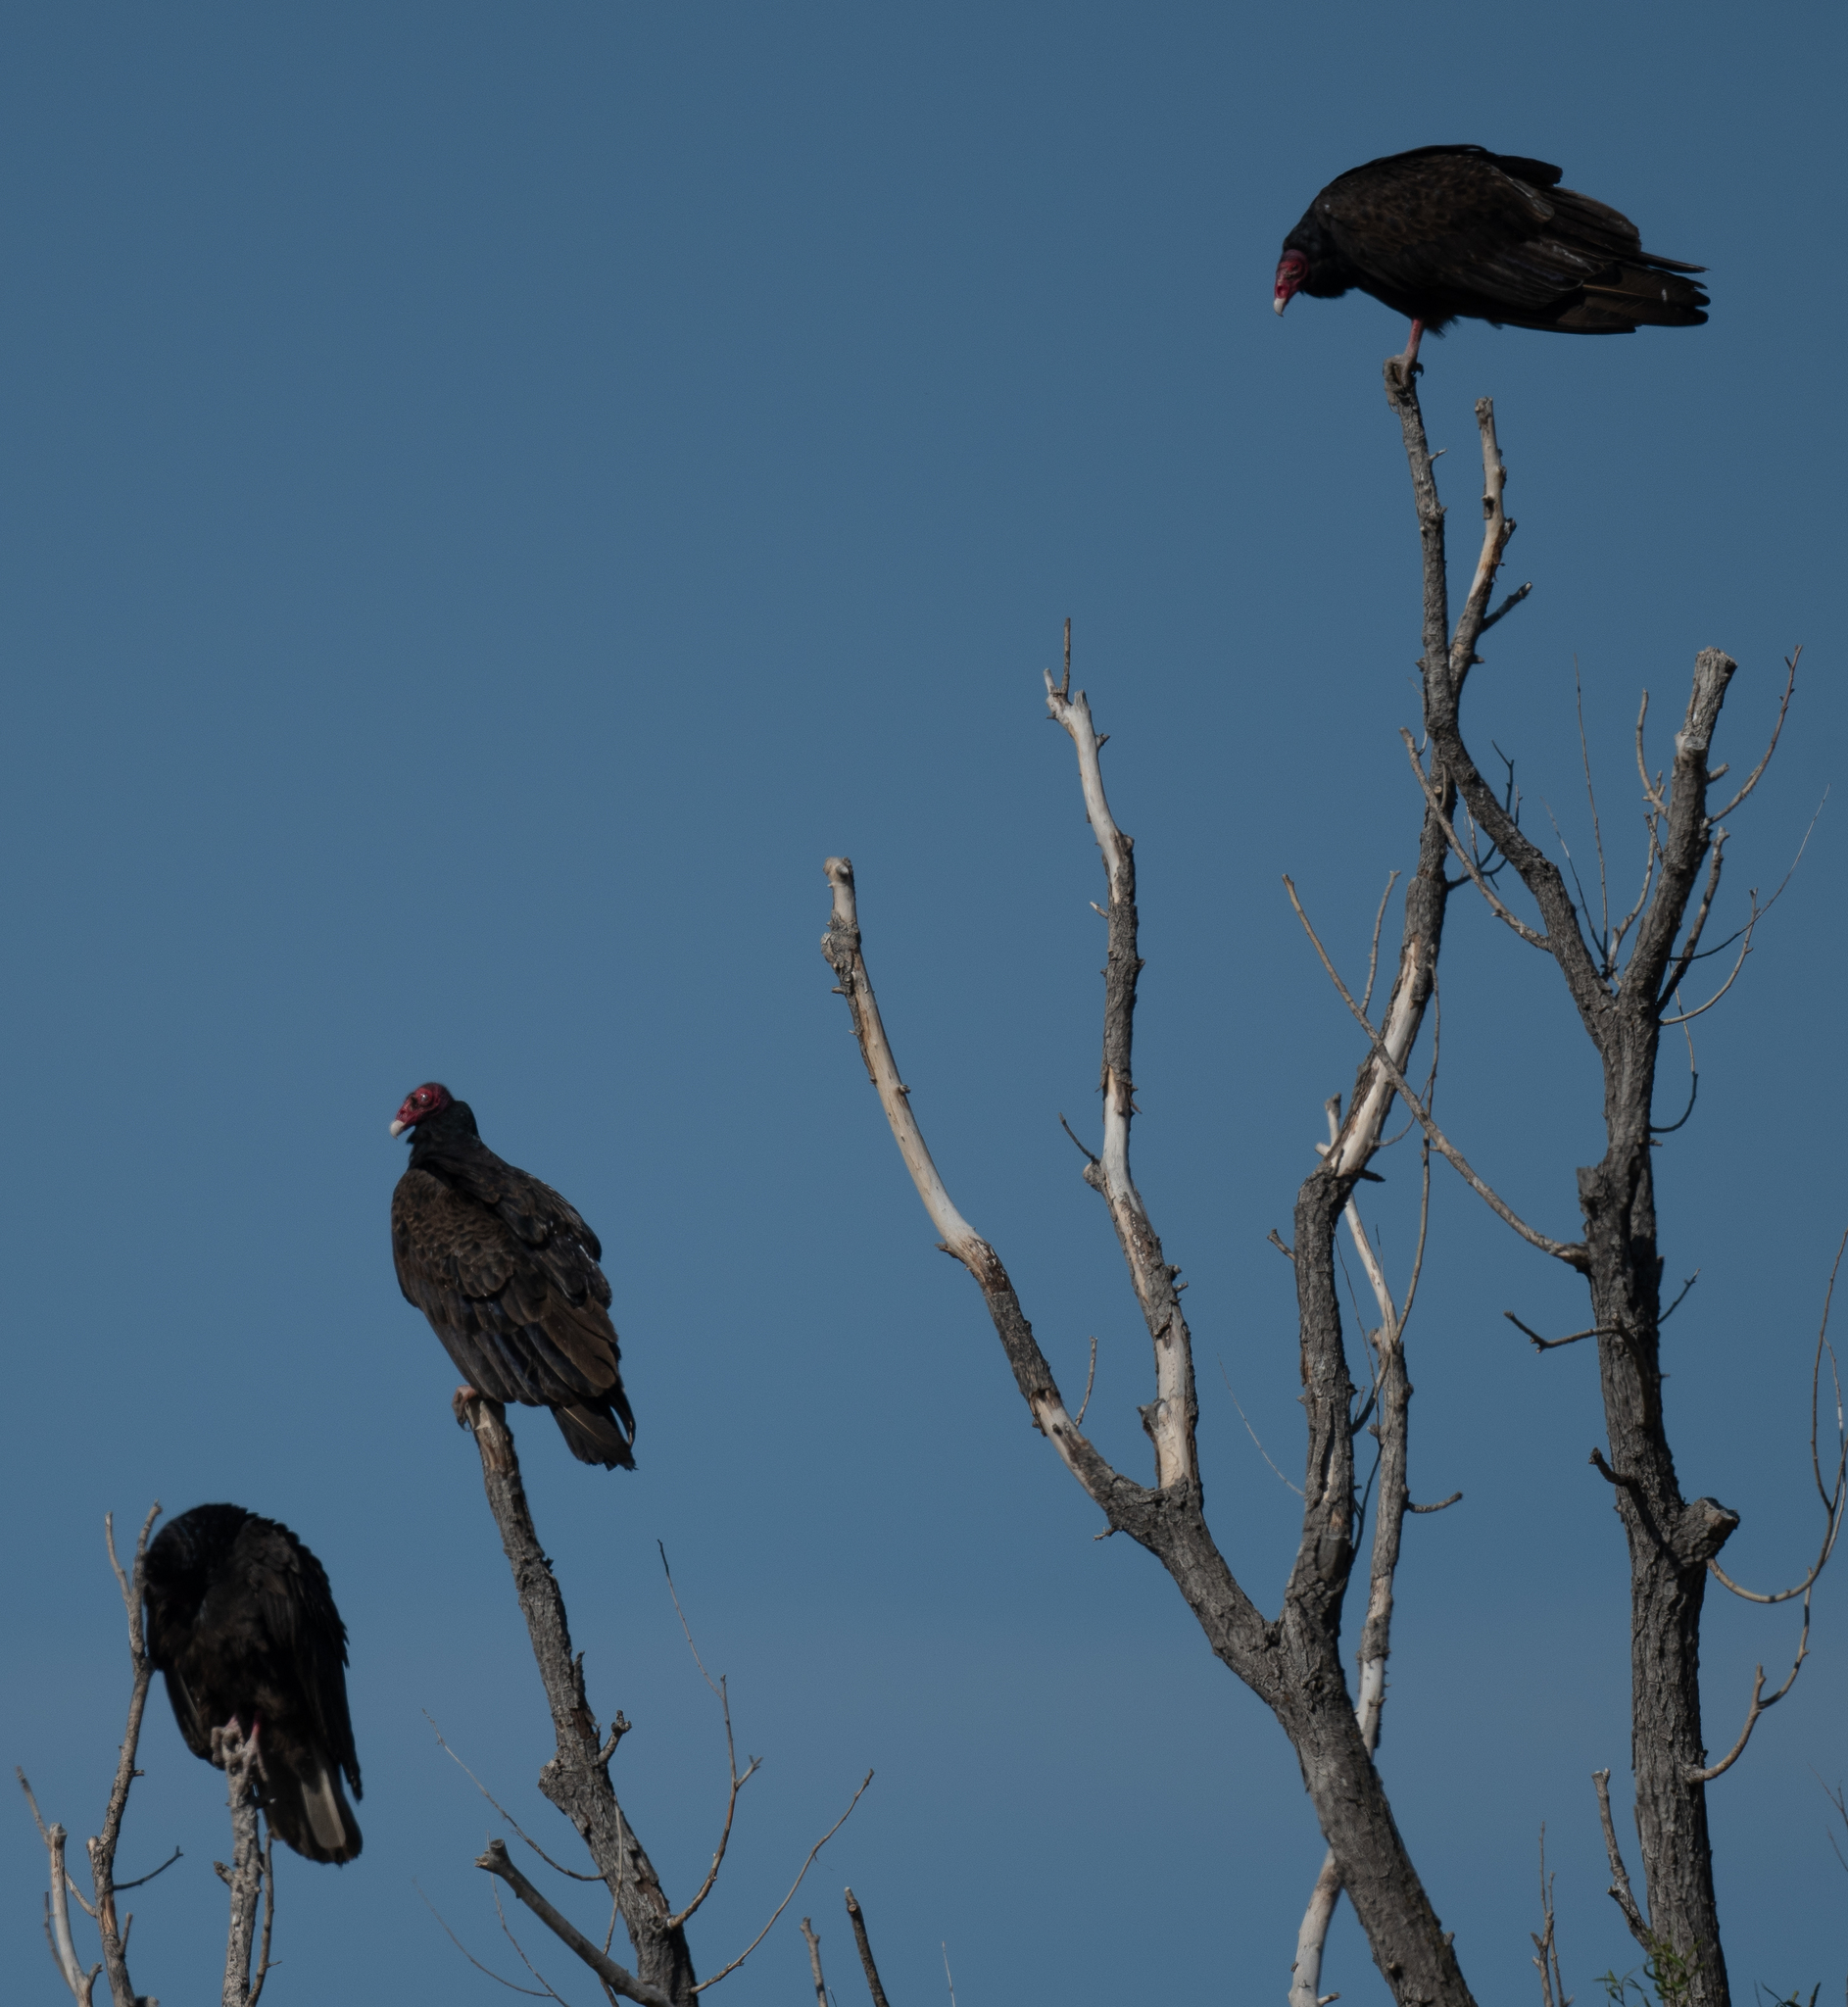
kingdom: Animalia
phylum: Chordata
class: Aves
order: Accipitriformes
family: Cathartidae
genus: Cathartes
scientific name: Cathartes aura
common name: Turkey vulture
